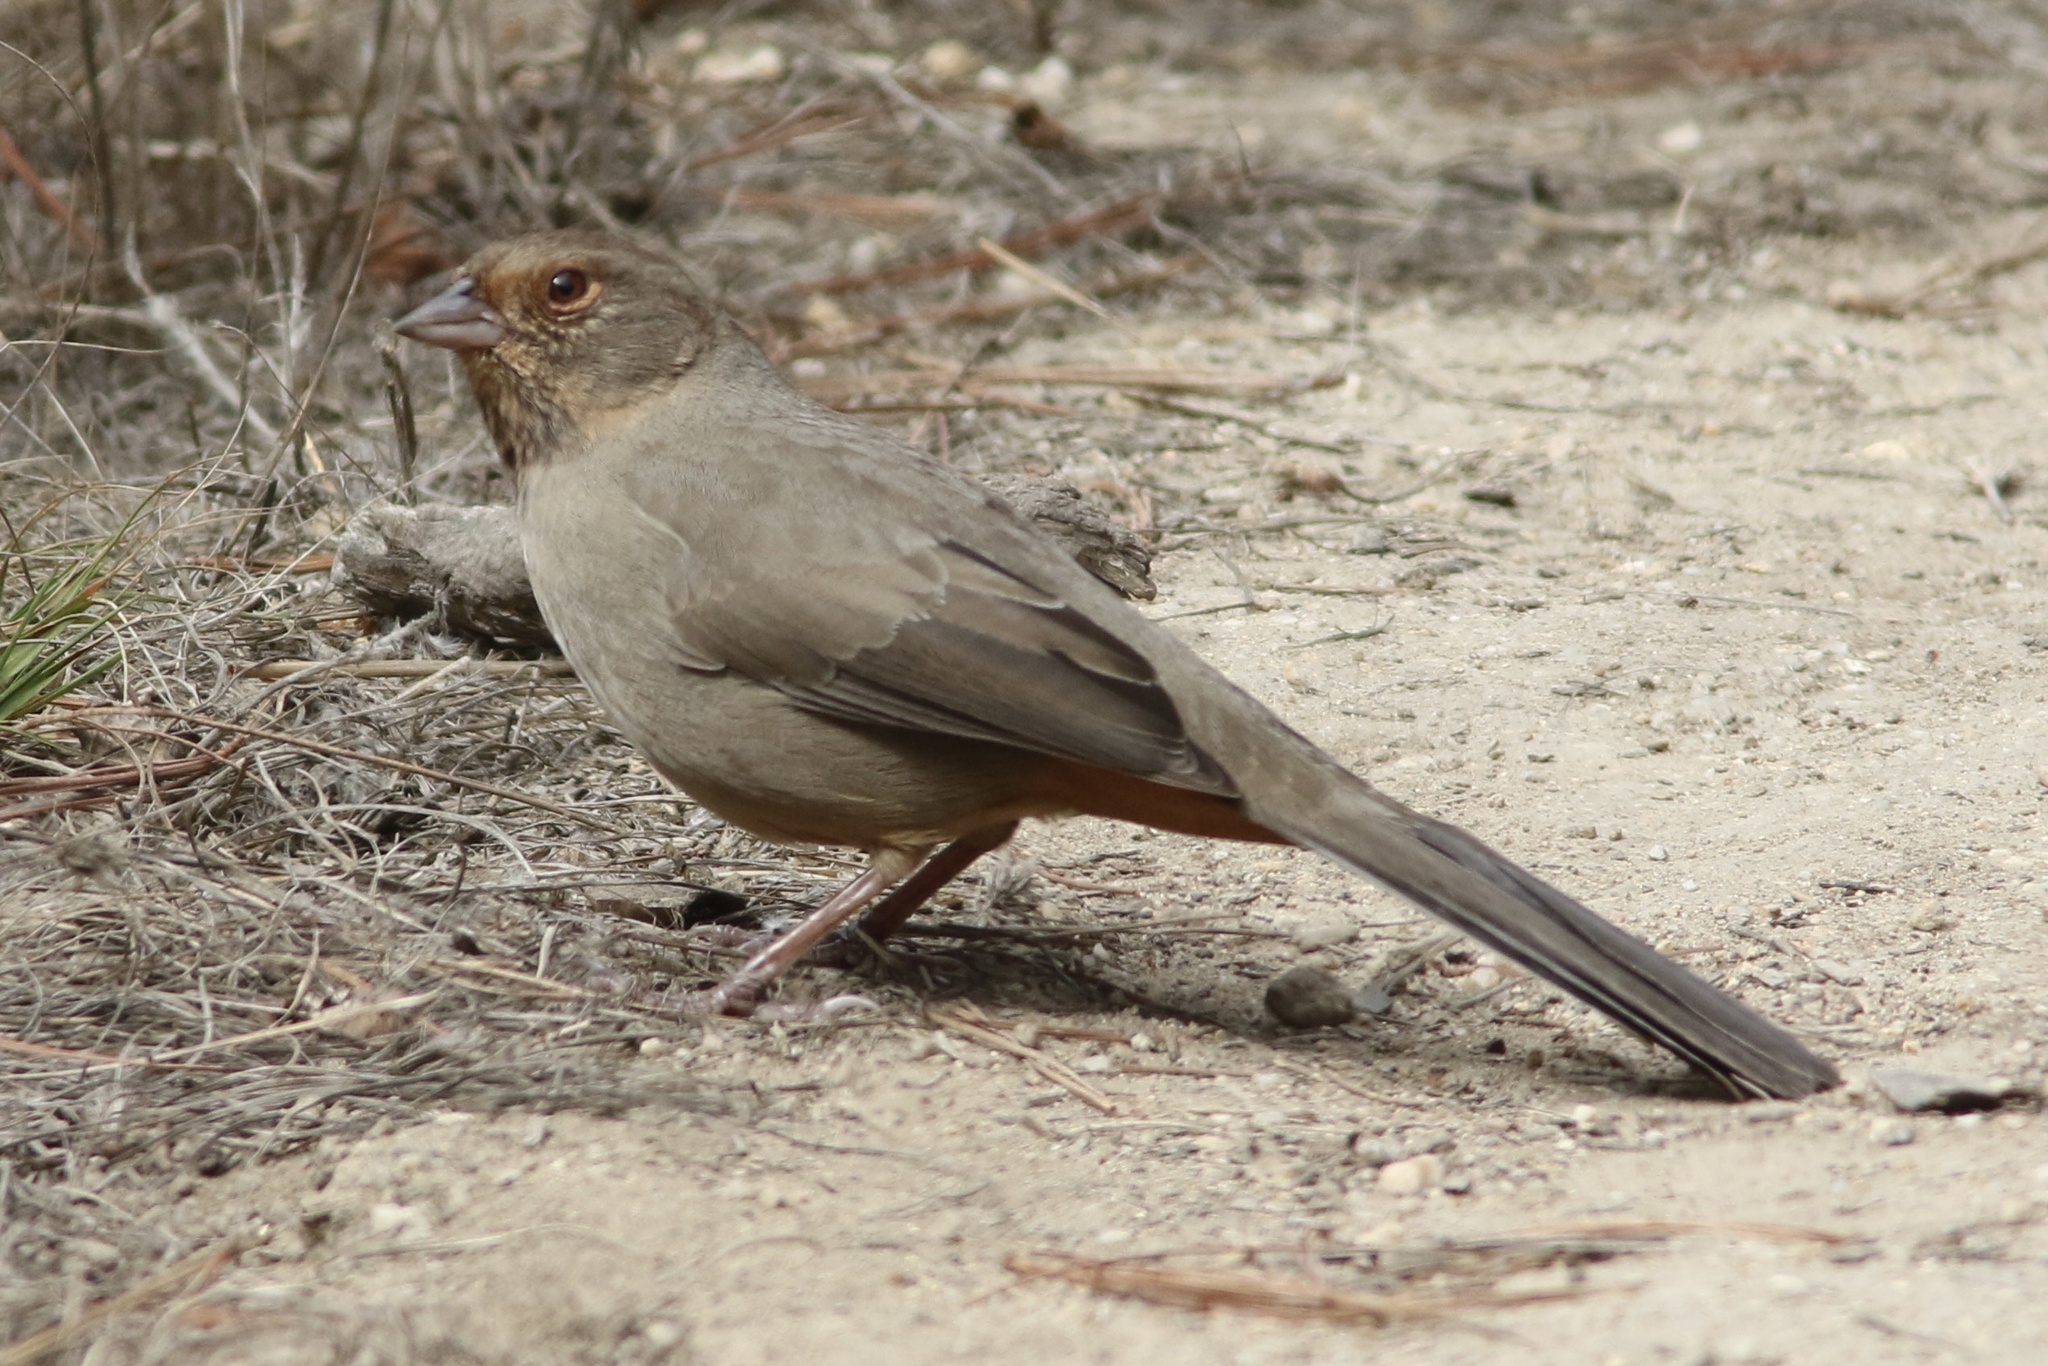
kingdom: Animalia
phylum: Chordata
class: Aves
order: Passeriformes
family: Passerellidae
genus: Melozone
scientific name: Melozone crissalis
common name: California towhee
